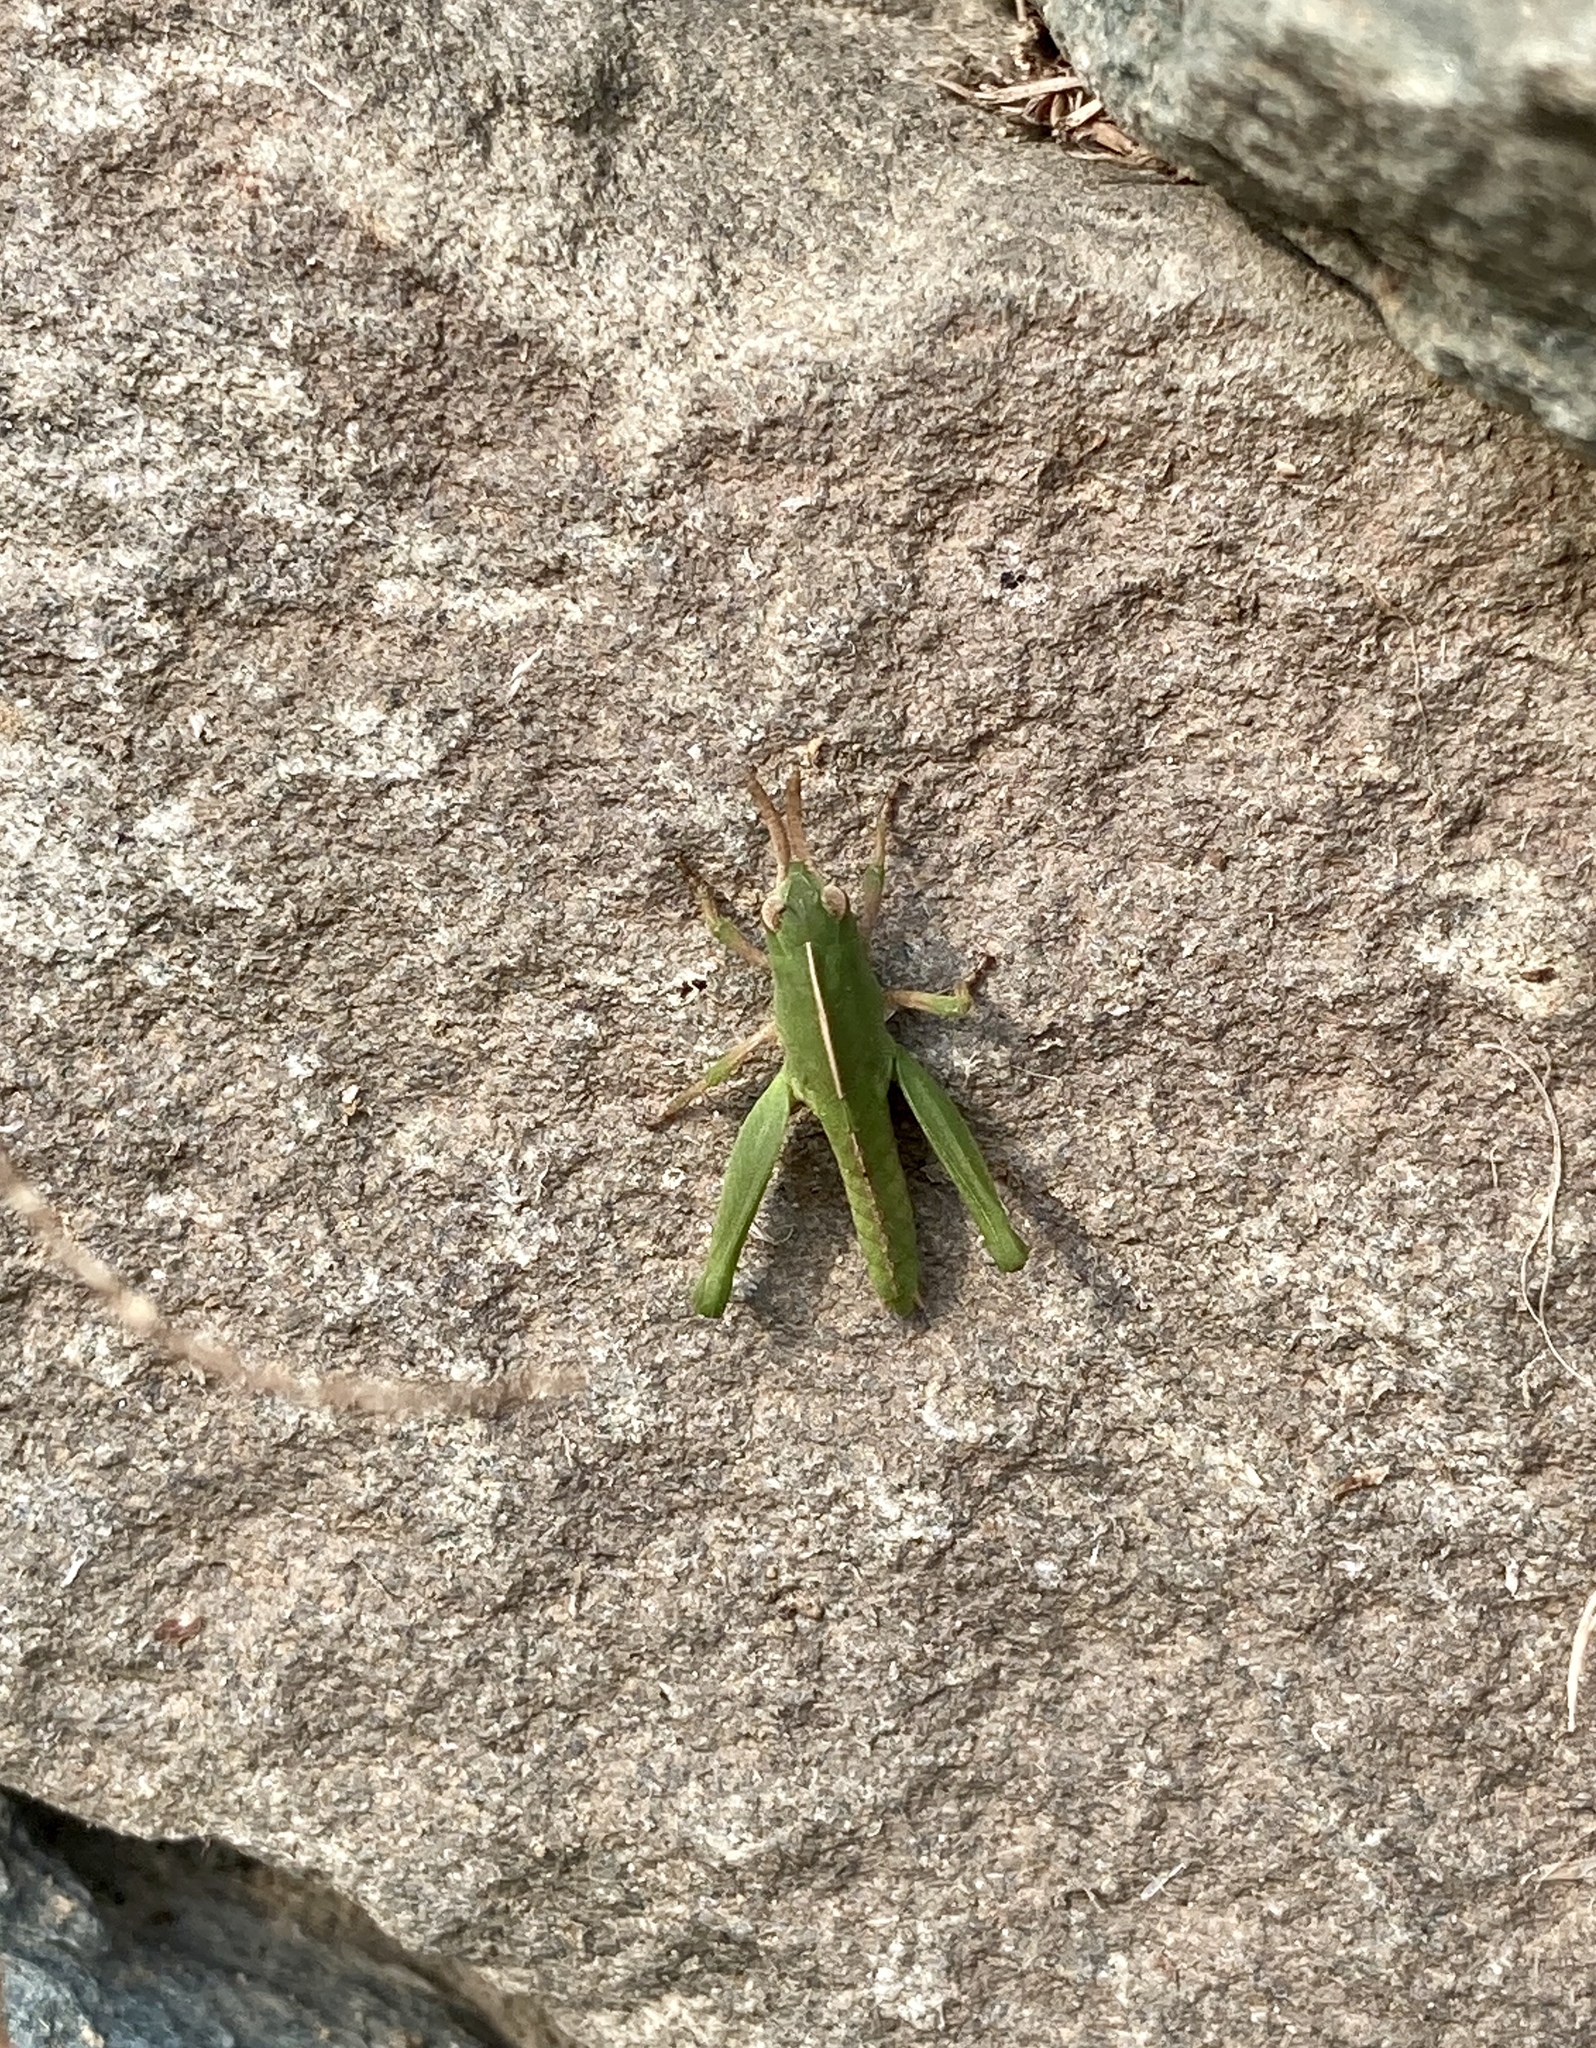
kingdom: Animalia
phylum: Arthropoda
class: Insecta
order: Orthoptera
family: Acrididae
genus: Chortophaga
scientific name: Chortophaga viridifasciata
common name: Green-striped grasshopper
